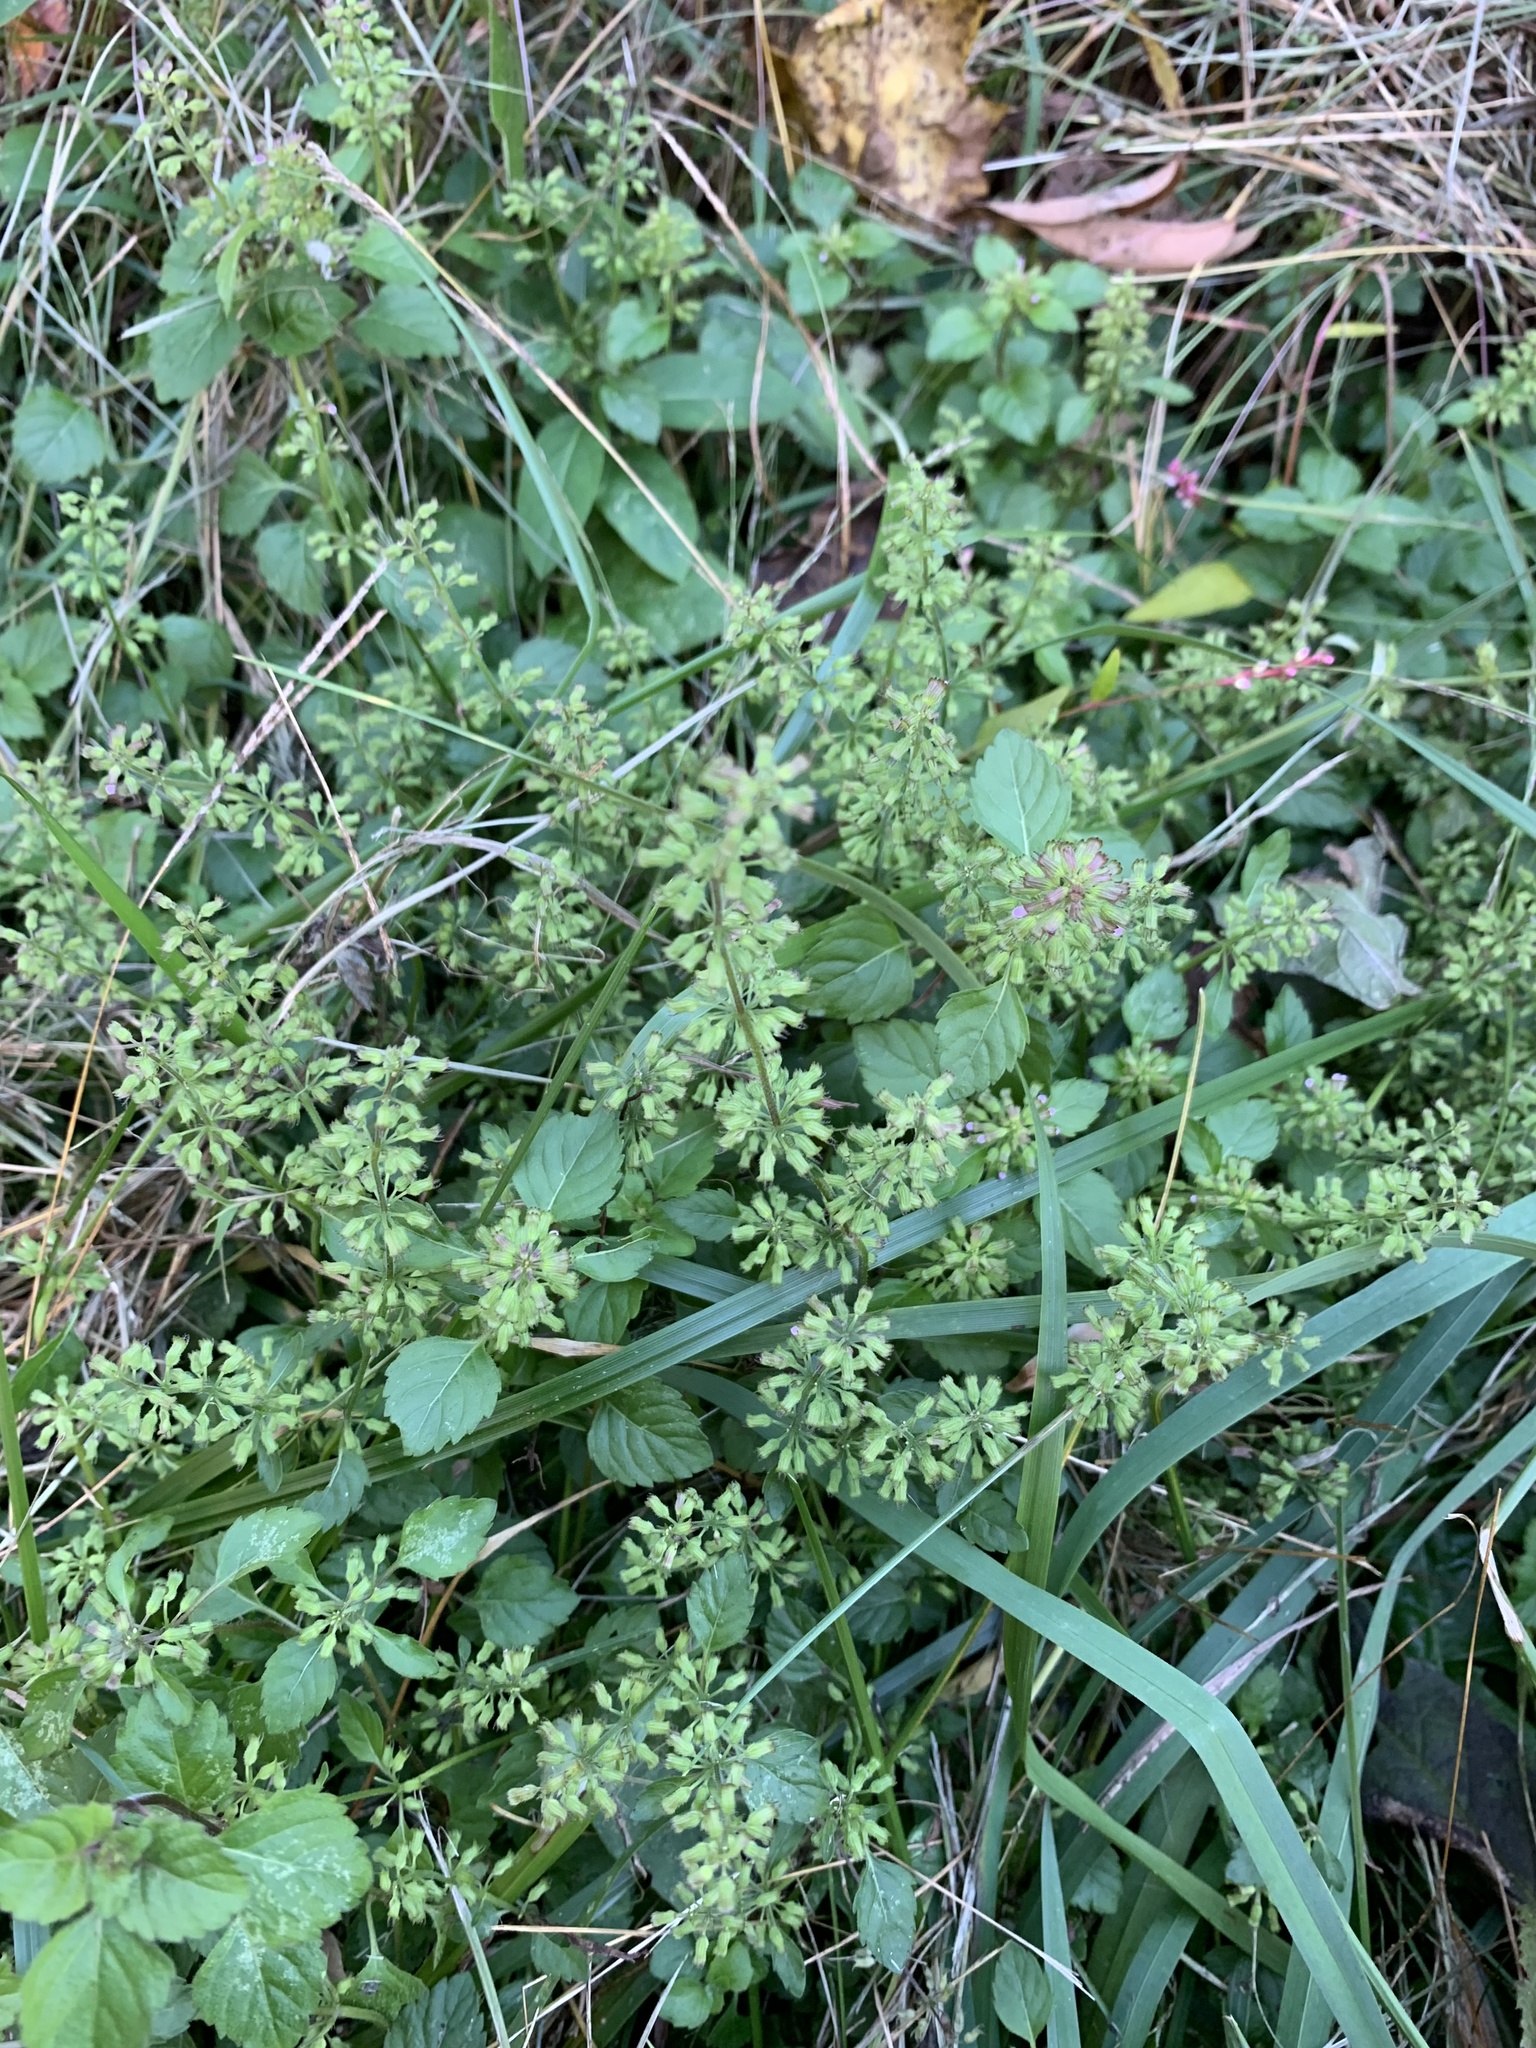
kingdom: Plantae
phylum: Tracheophyta
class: Magnoliopsida
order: Lamiales
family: Lamiaceae
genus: Clinopodium
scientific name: Clinopodium gracile
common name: Slender wild basil
